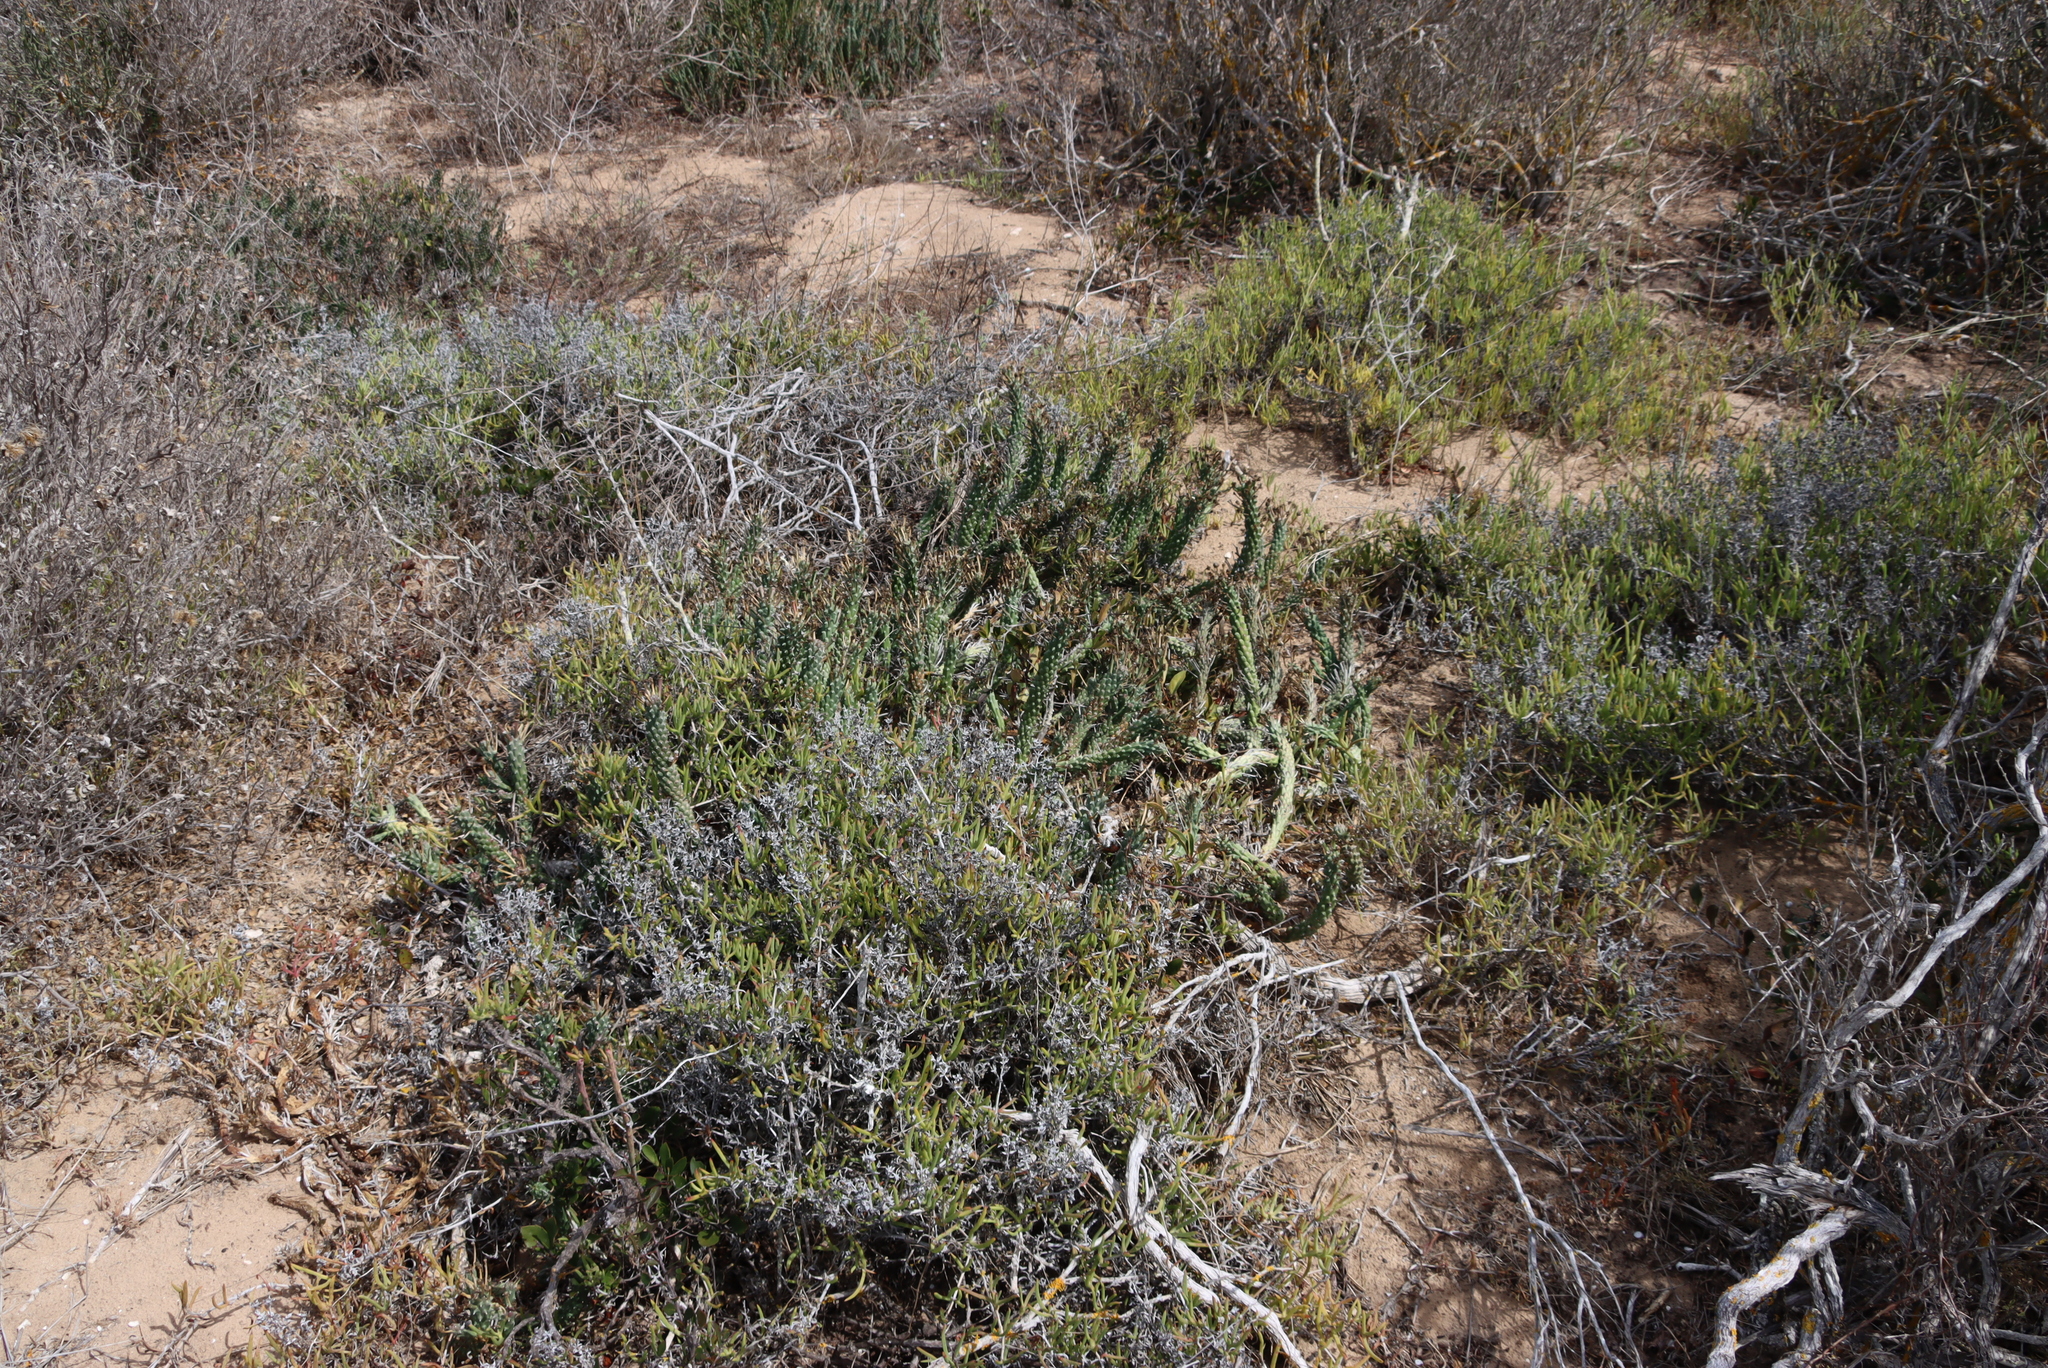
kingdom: Plantae
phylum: Tracheophyta
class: Magnoliopsida
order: Malpighiales
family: Euphorbiaceae
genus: Euphorbia
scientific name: Euphorbia caput-medusae
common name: Medusa's-head
